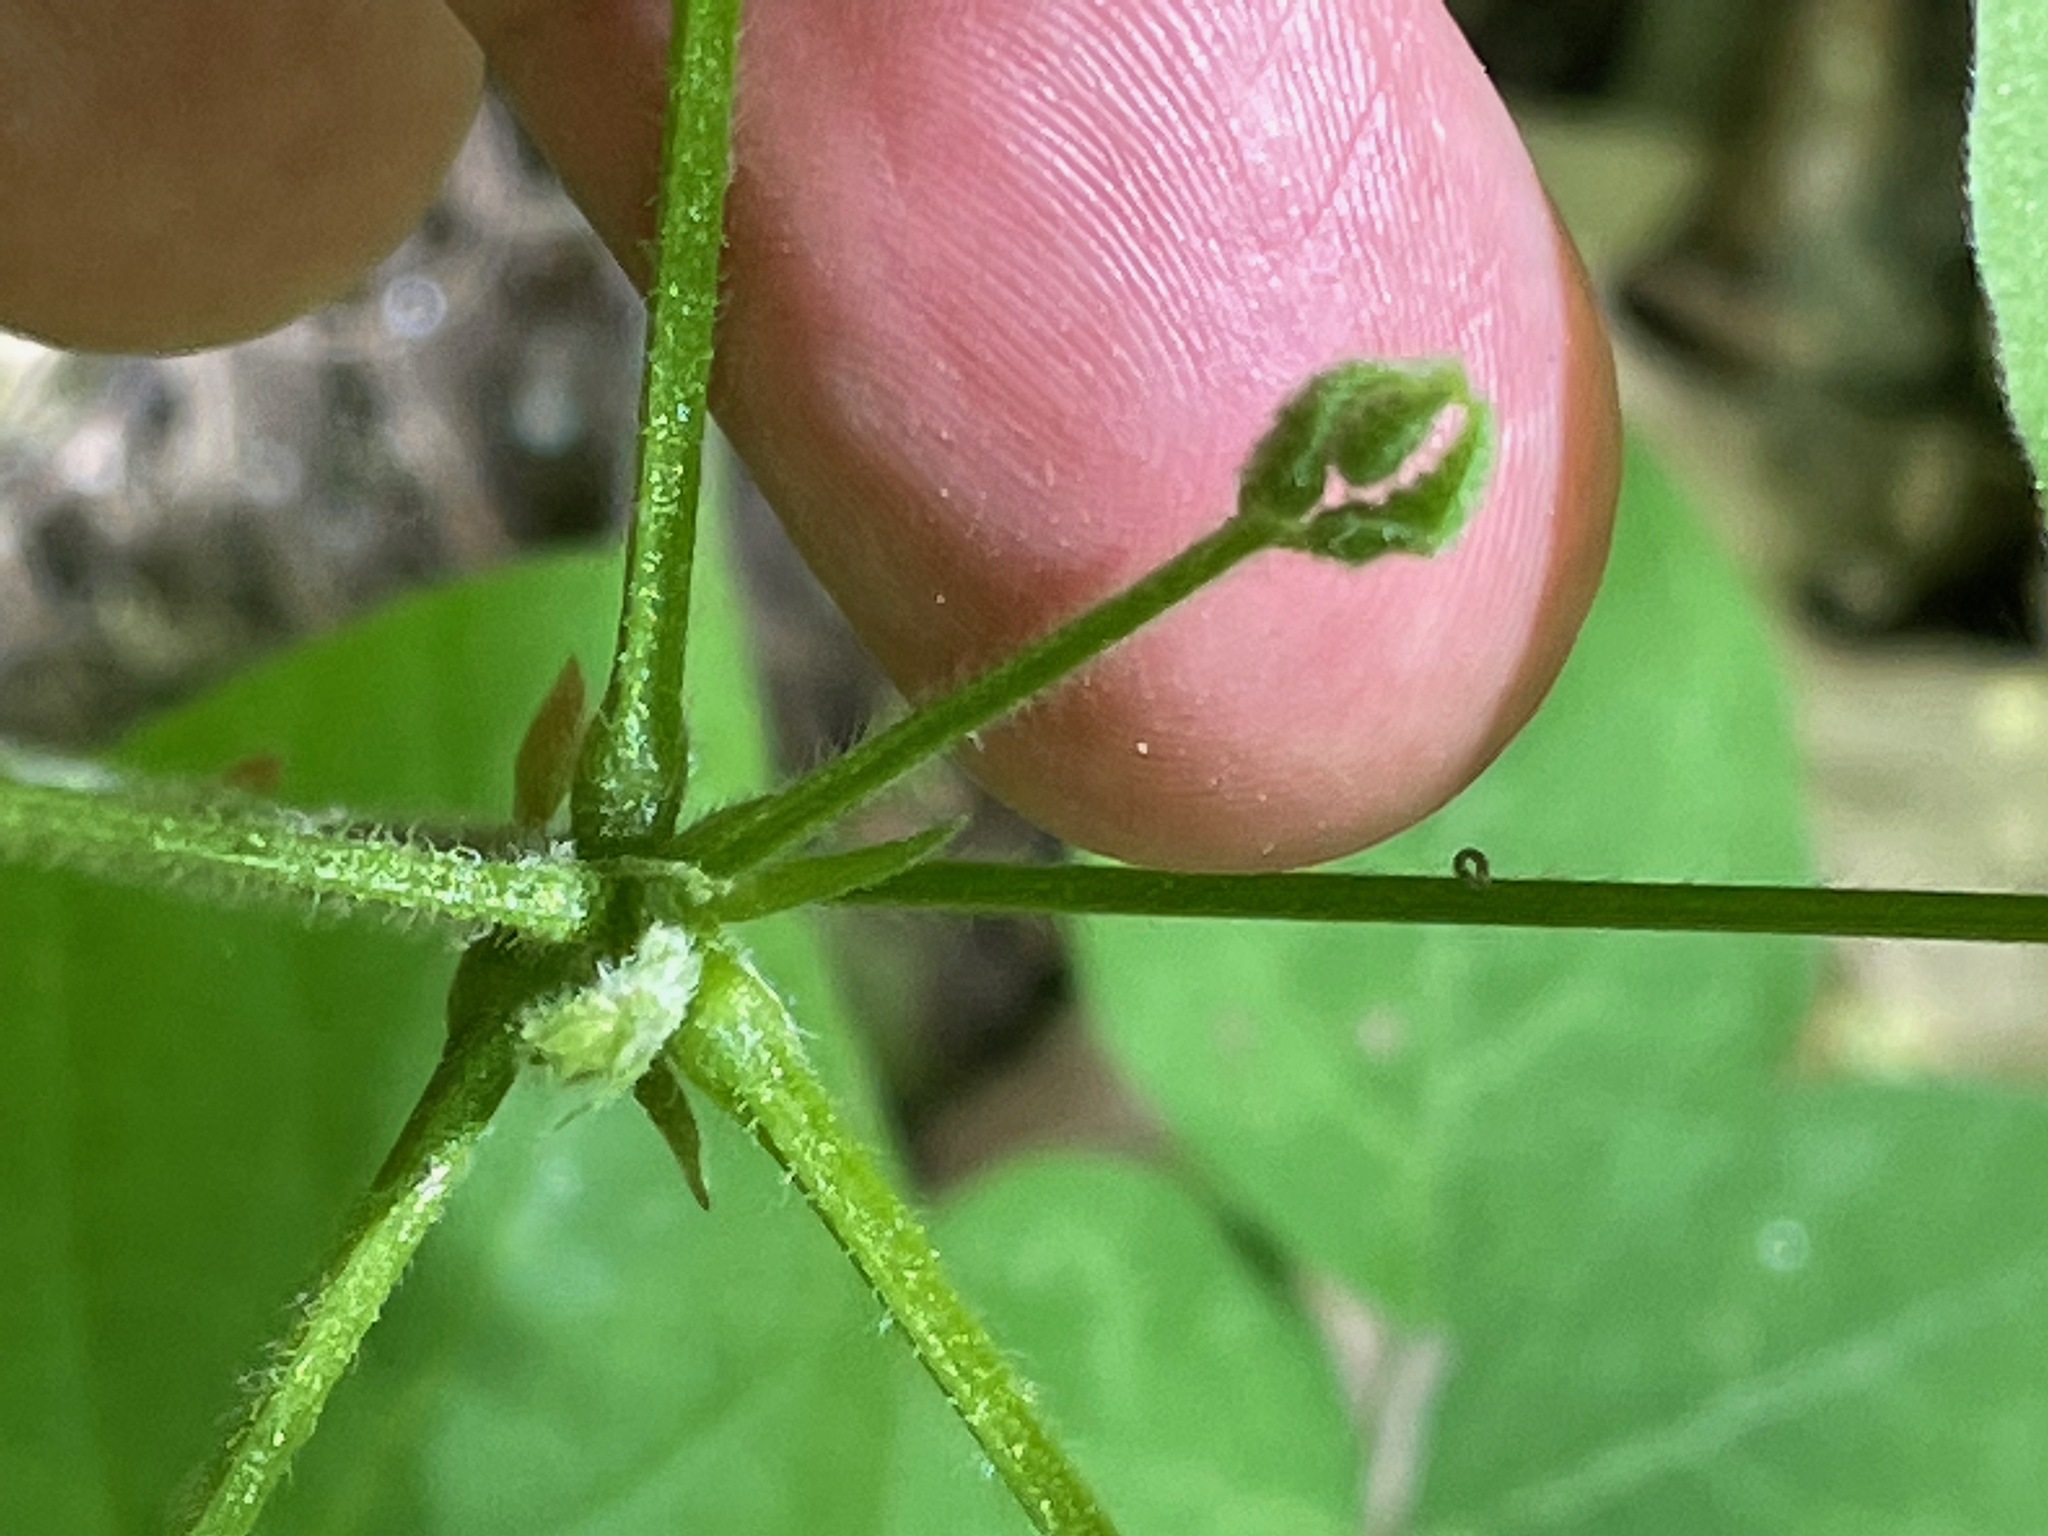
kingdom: Plantae
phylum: Tracheophyta
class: Magnoliopsida
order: Fabales
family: Fabaceae
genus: Hylodesmum
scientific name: Hylodesmum glutinosum
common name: Clustered-leaved tick-trefoil
